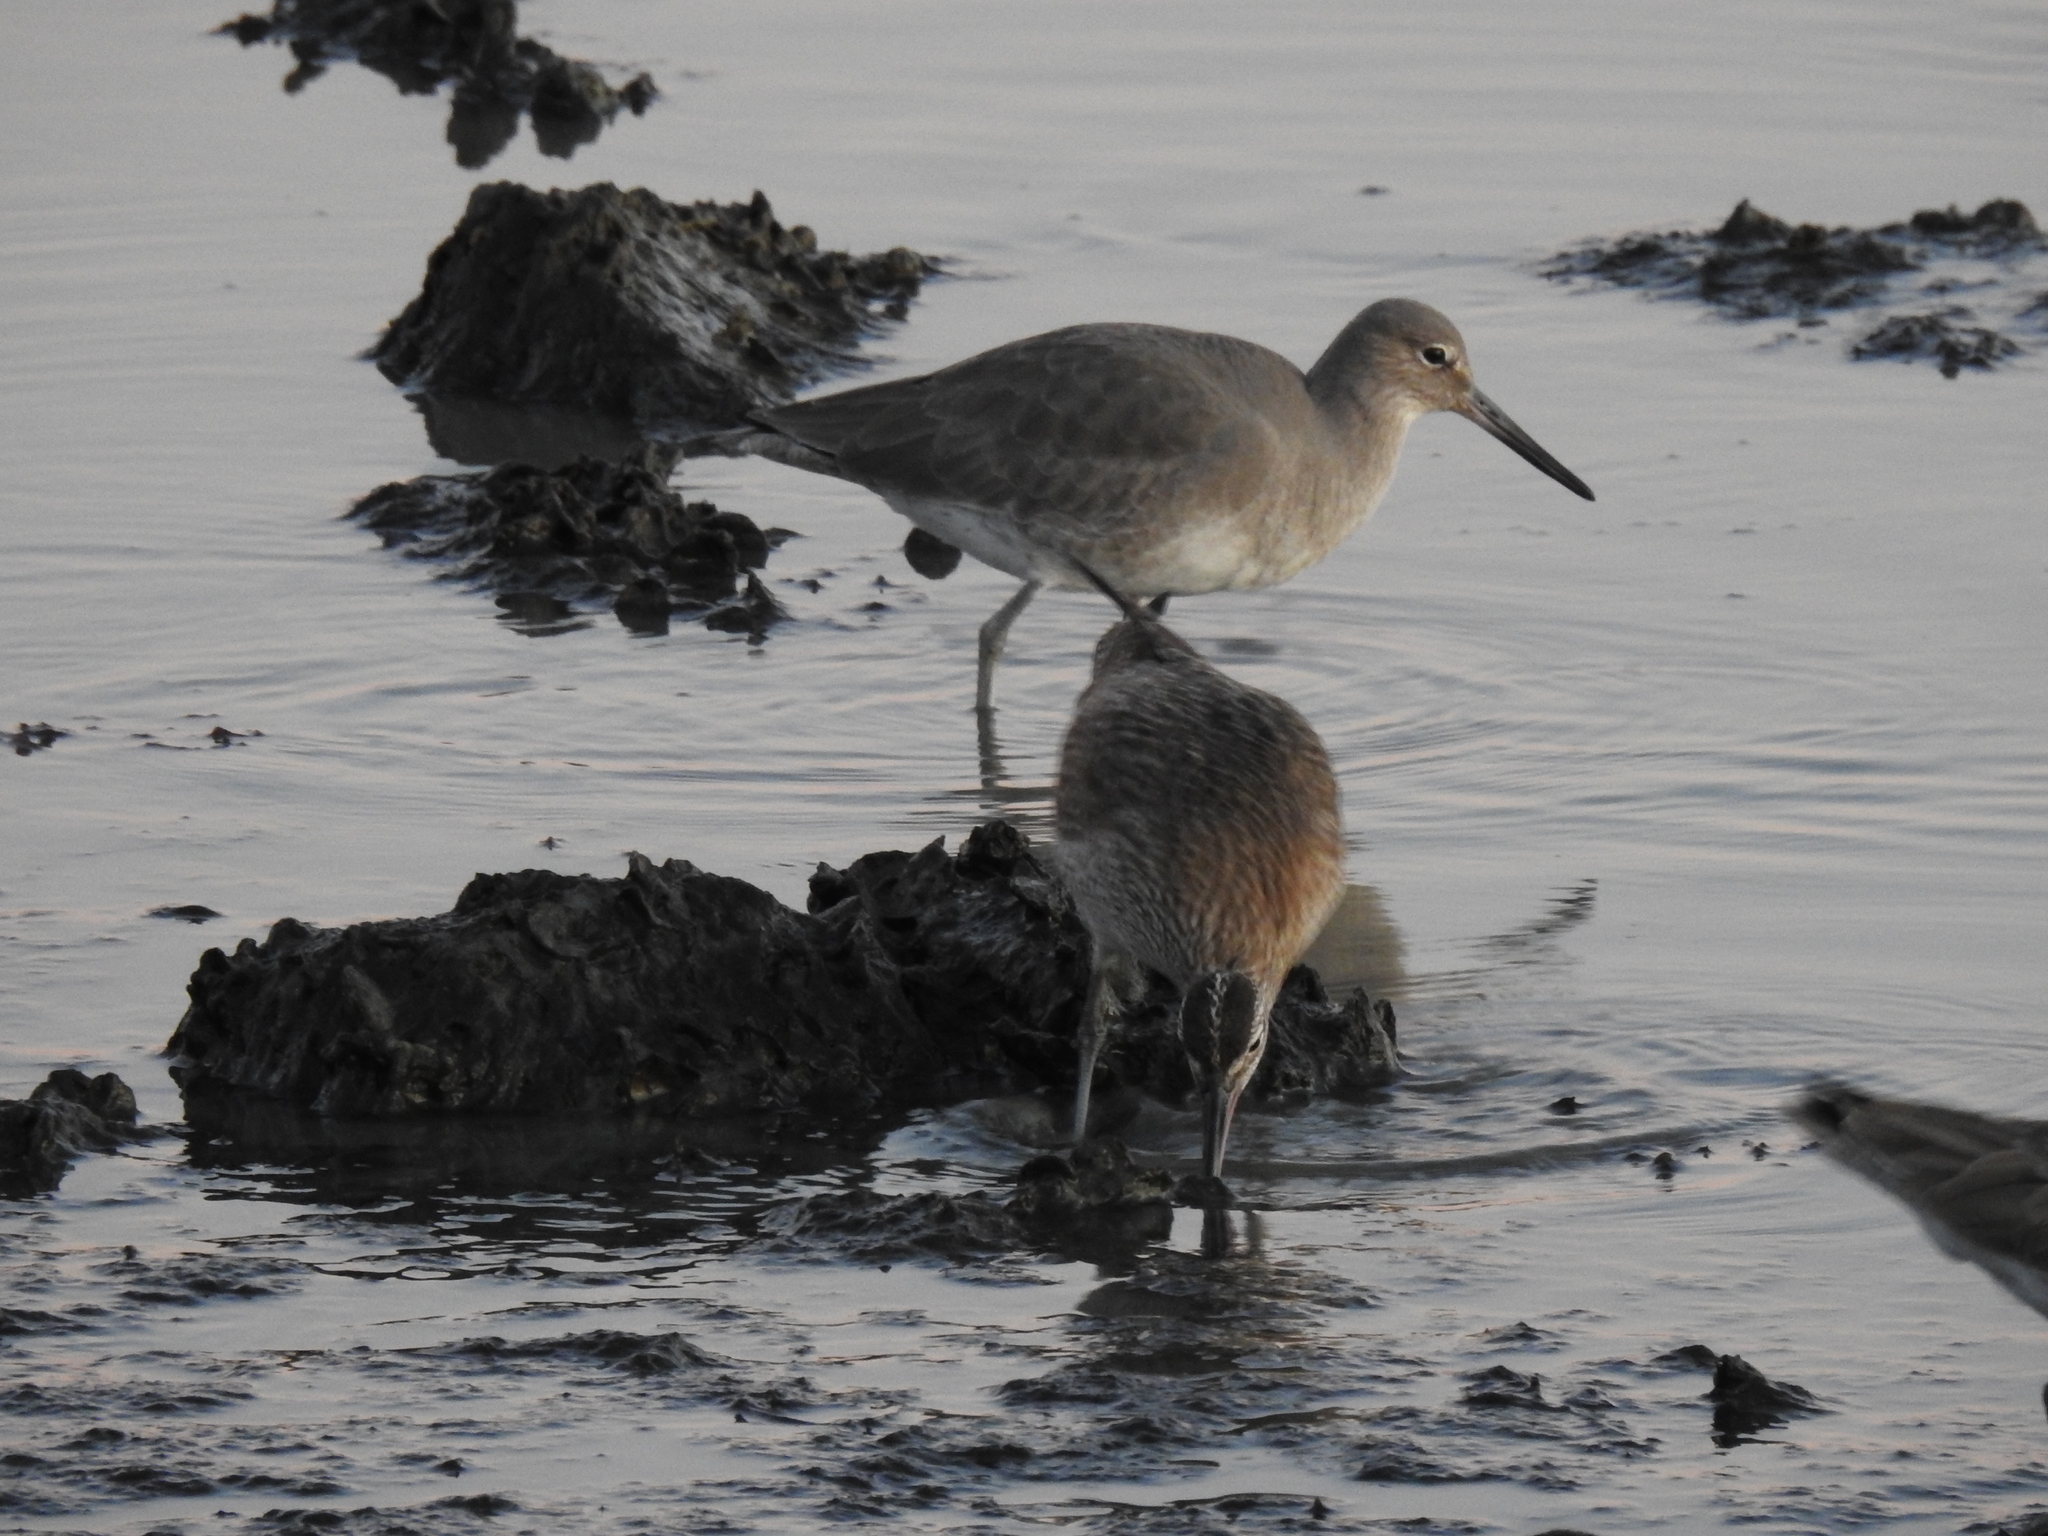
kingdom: Animalia
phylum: Chordata
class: Aves
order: Charadriiformes
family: Scolopacidae
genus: Tringa
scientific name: Tringa semipalmata
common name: Willet
